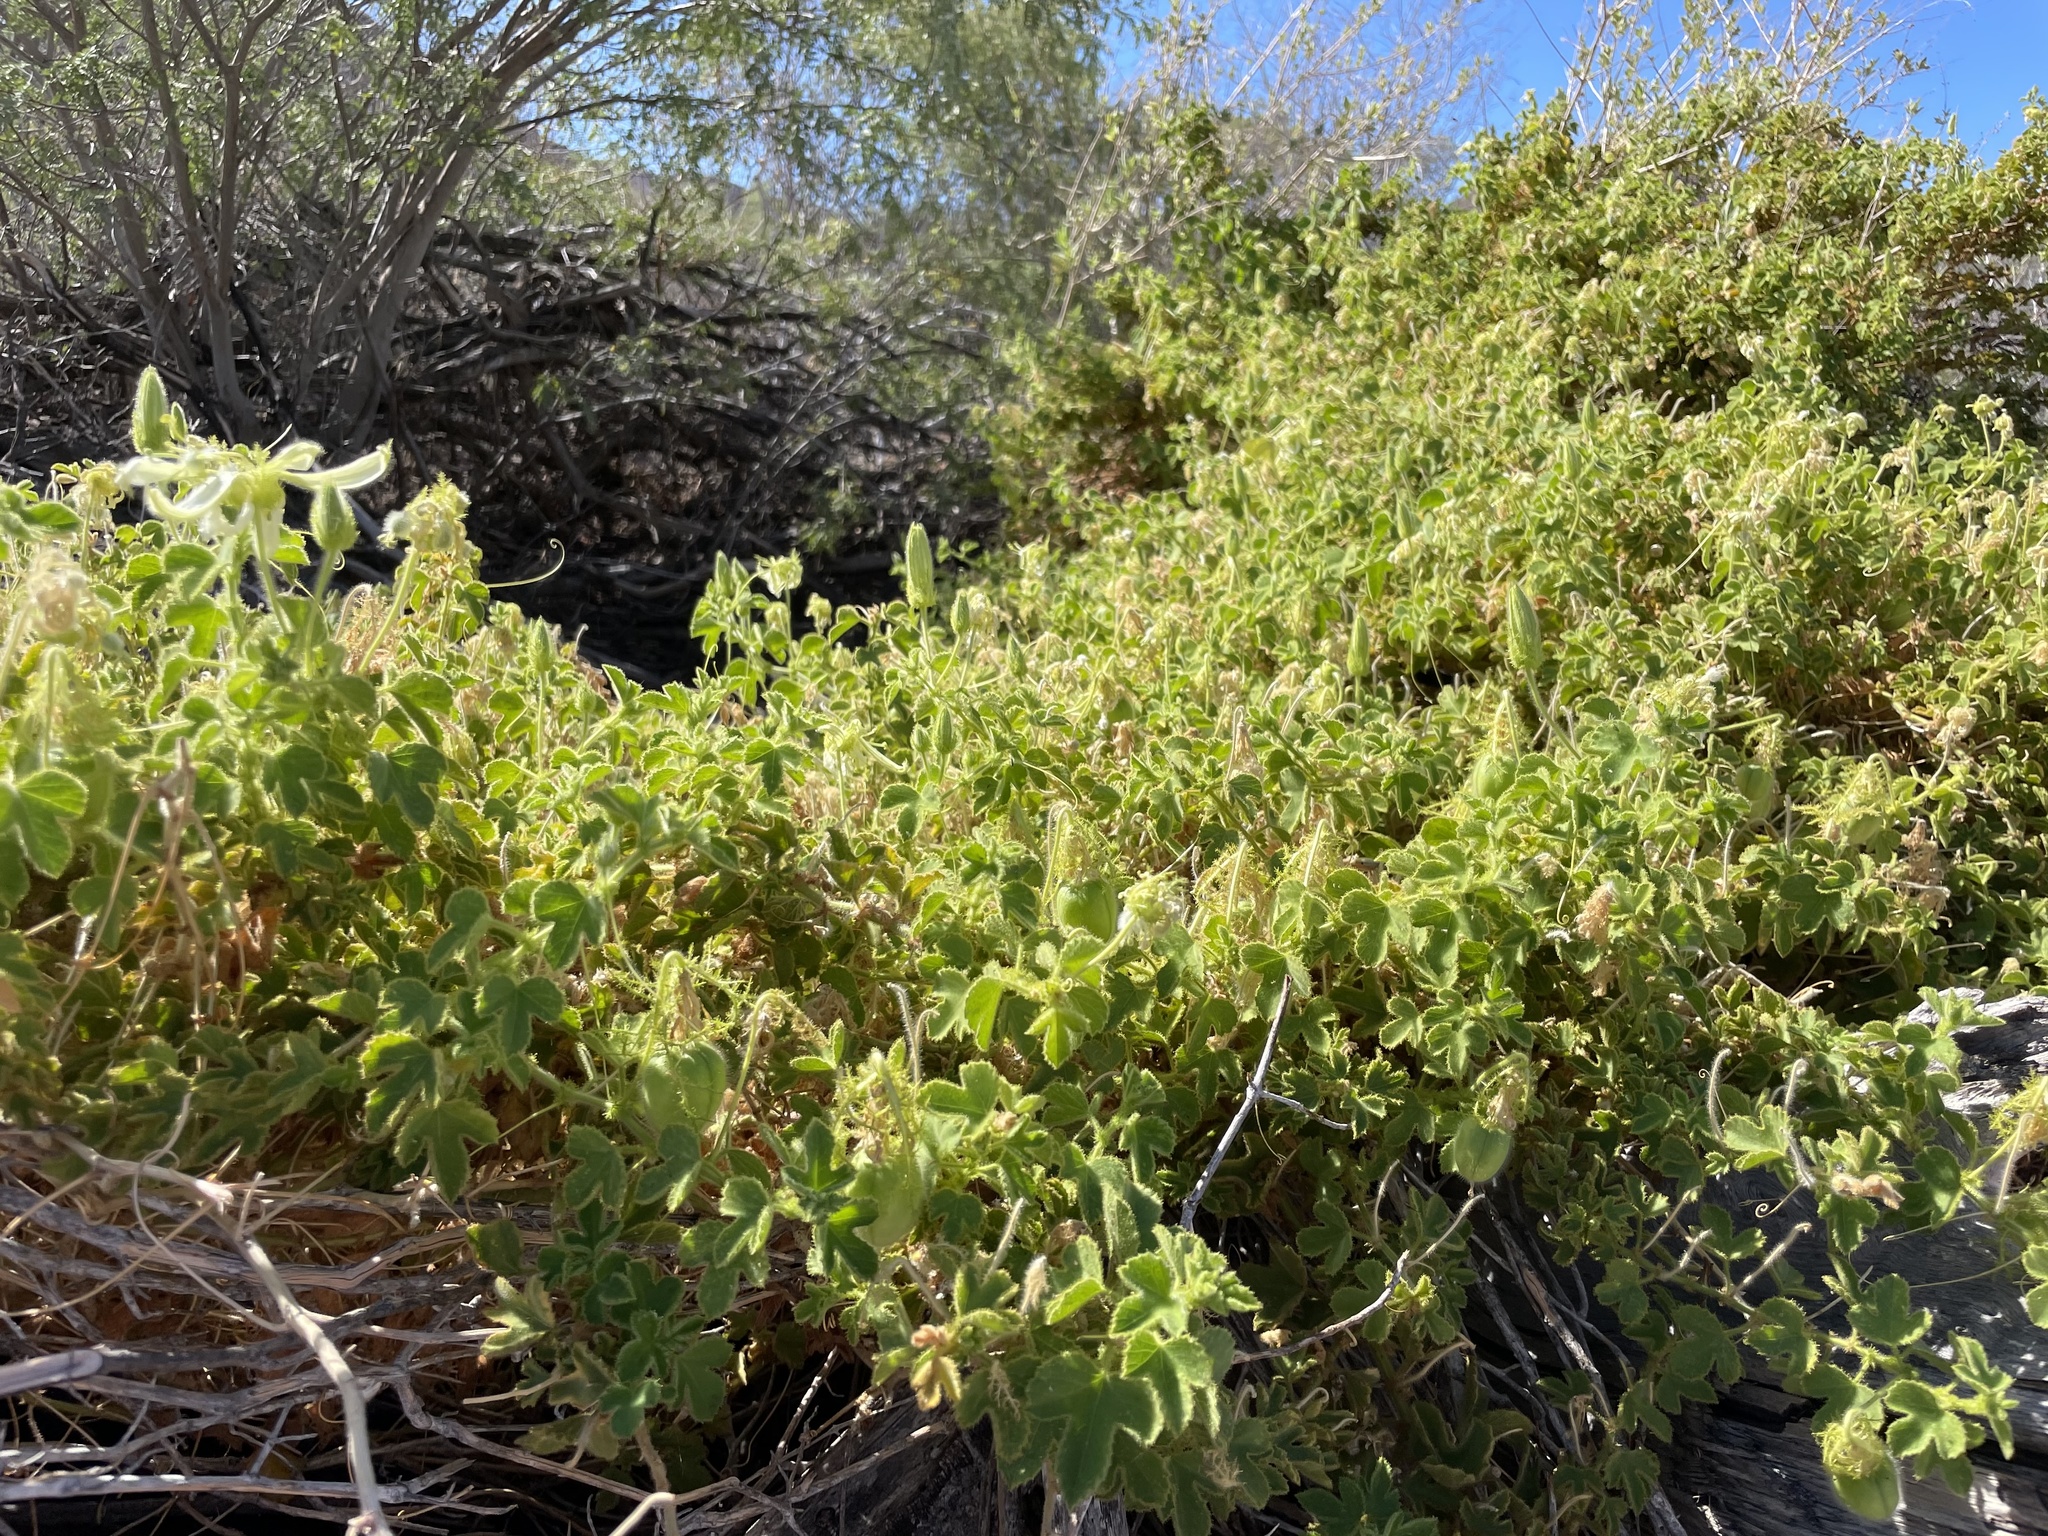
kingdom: Plantae
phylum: Tracheophyta
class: Magnoliopsida
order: Malpighiales
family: Passifloraceae
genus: Passiflora
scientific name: Passiflora palmeri
